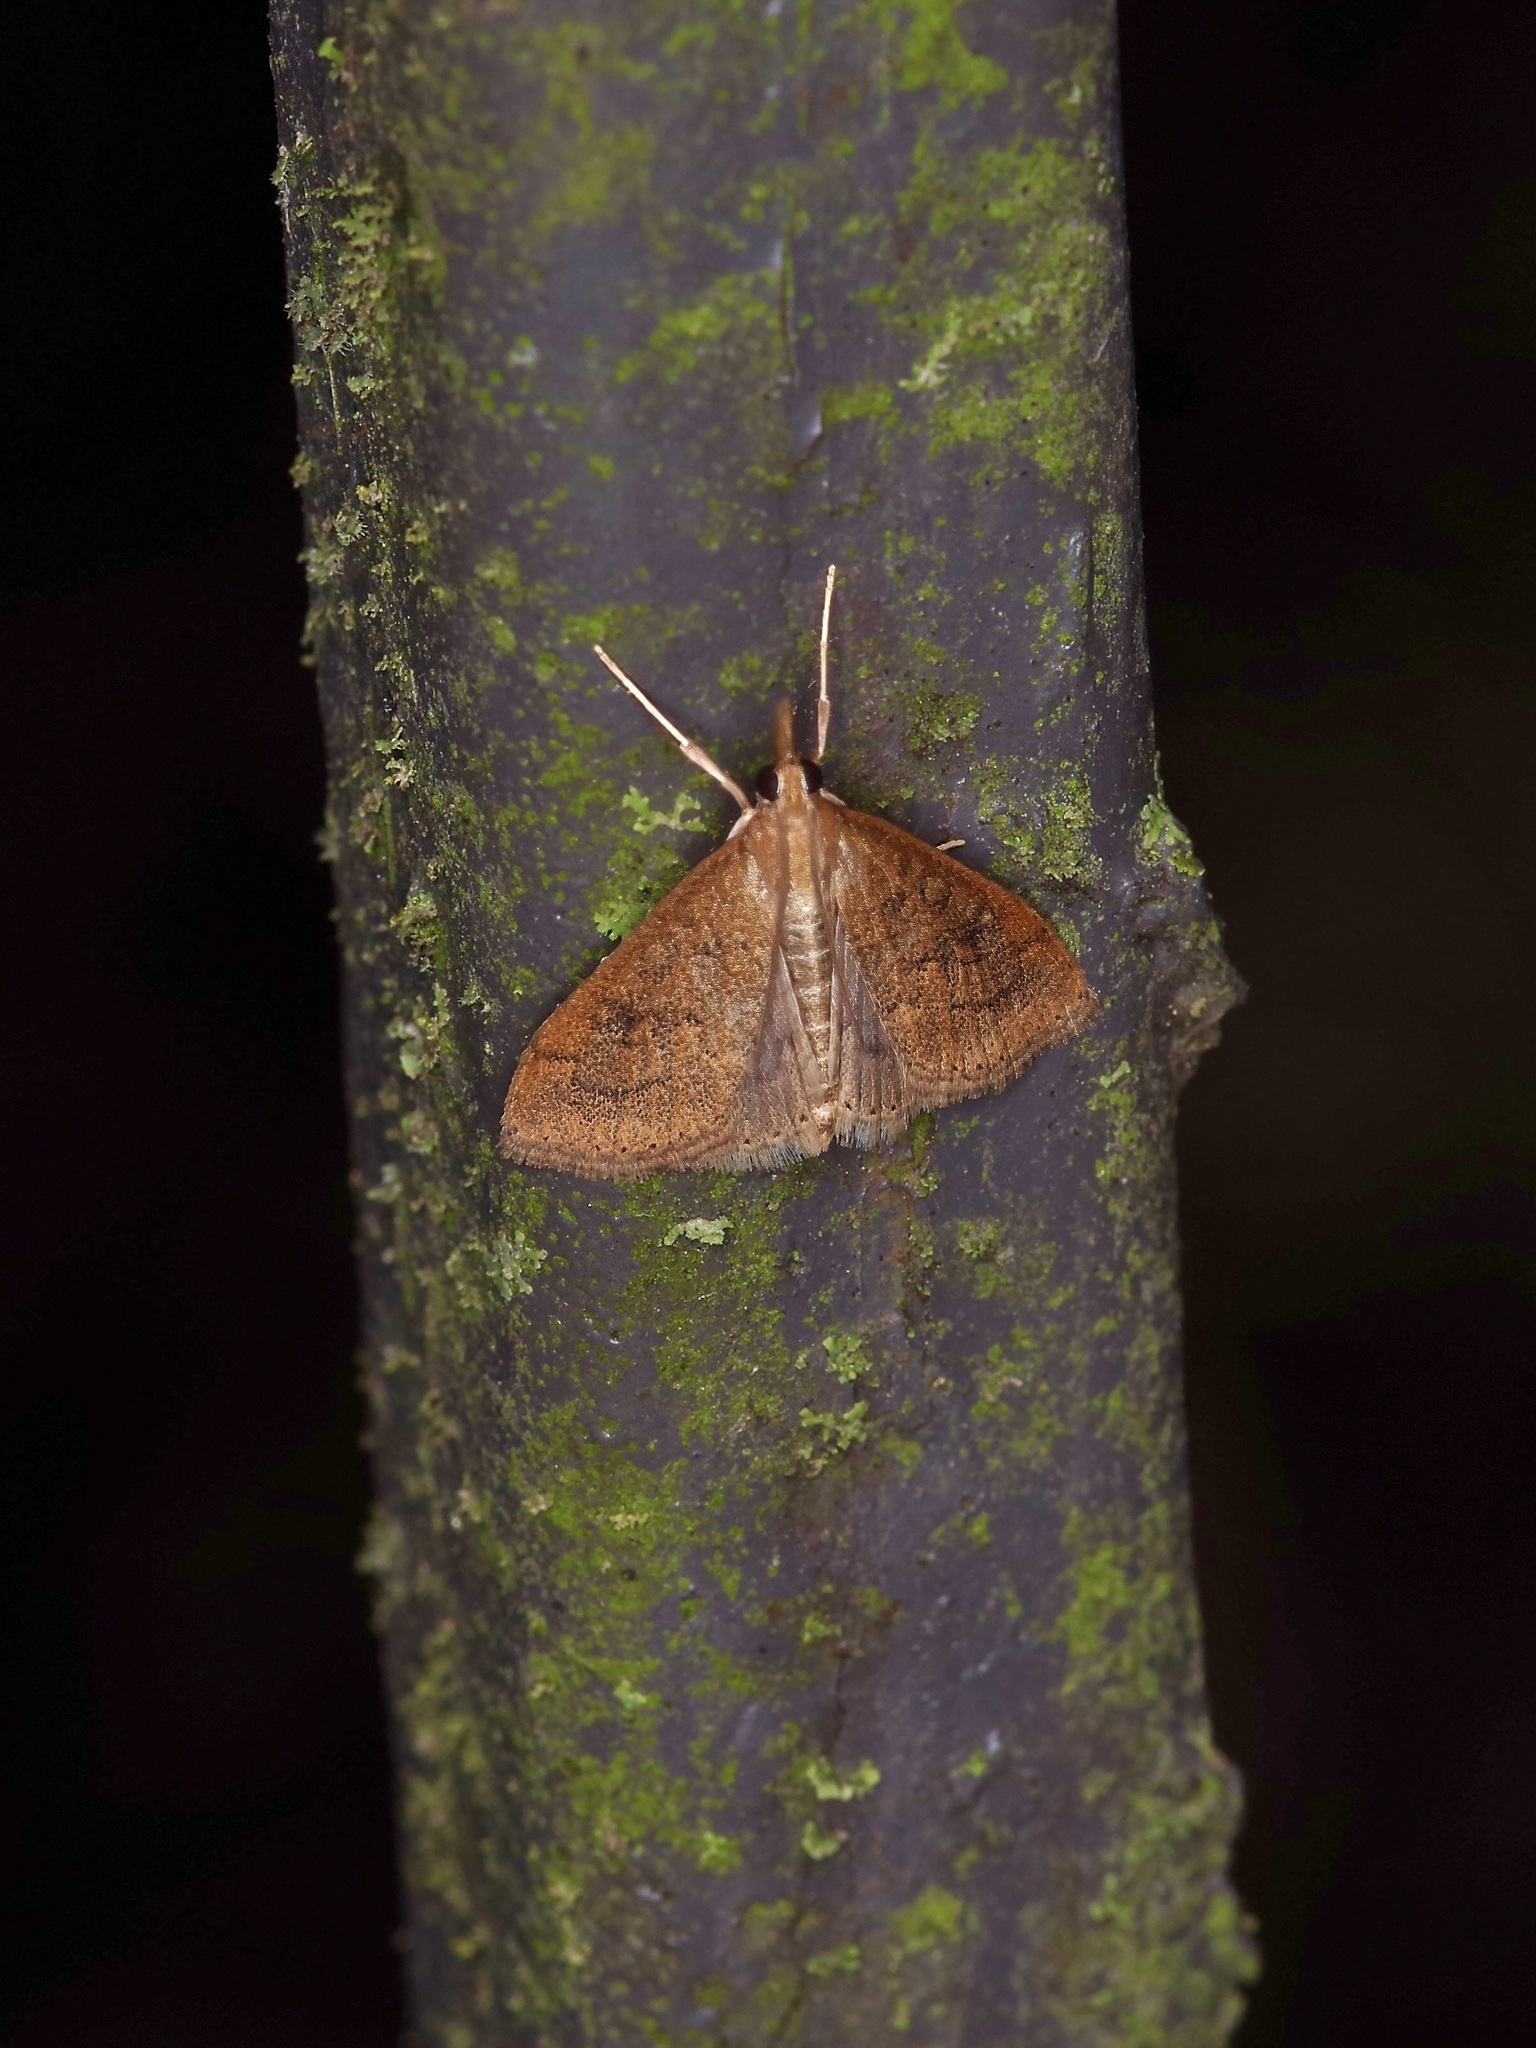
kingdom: Animalia
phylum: Arthropoda
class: Insecta
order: Lepidoptera
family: Crambidae
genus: Udea
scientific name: Udea rubigalis
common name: Celery leaftier moth
